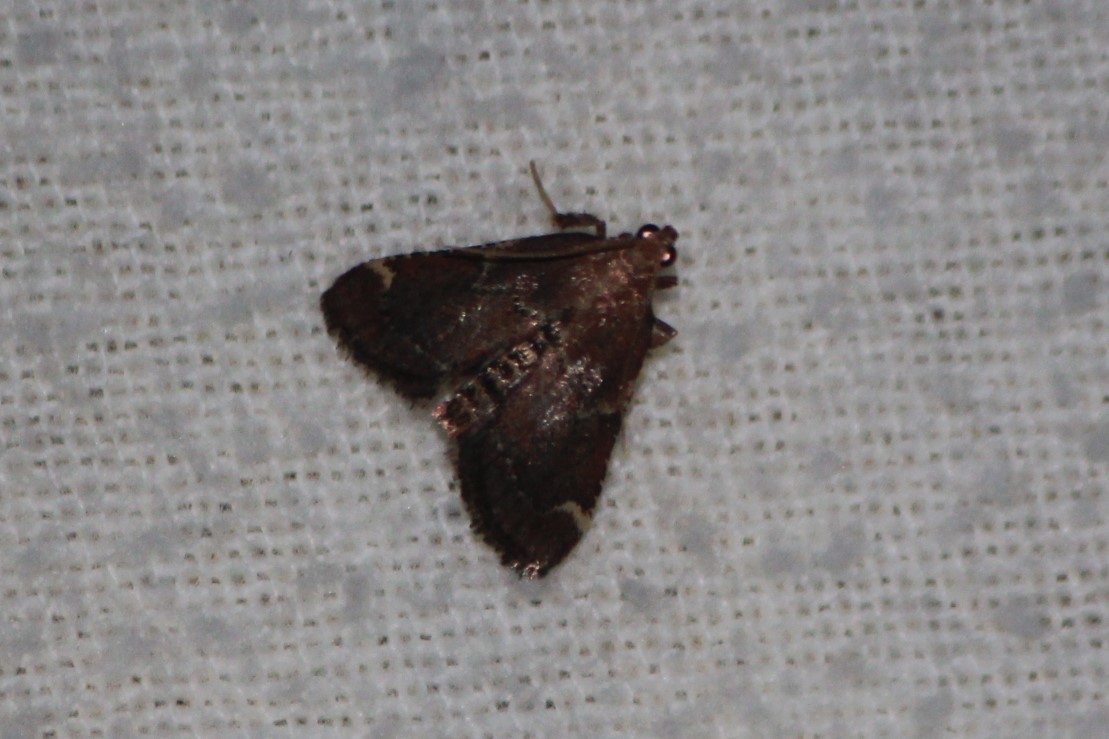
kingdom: Animalia
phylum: Arthropoda
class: Insecta
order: Lepidoptera
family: Pyralidae
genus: Hypsopygia
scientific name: Hypsopygia intermedialis
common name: Red-shawled moth
